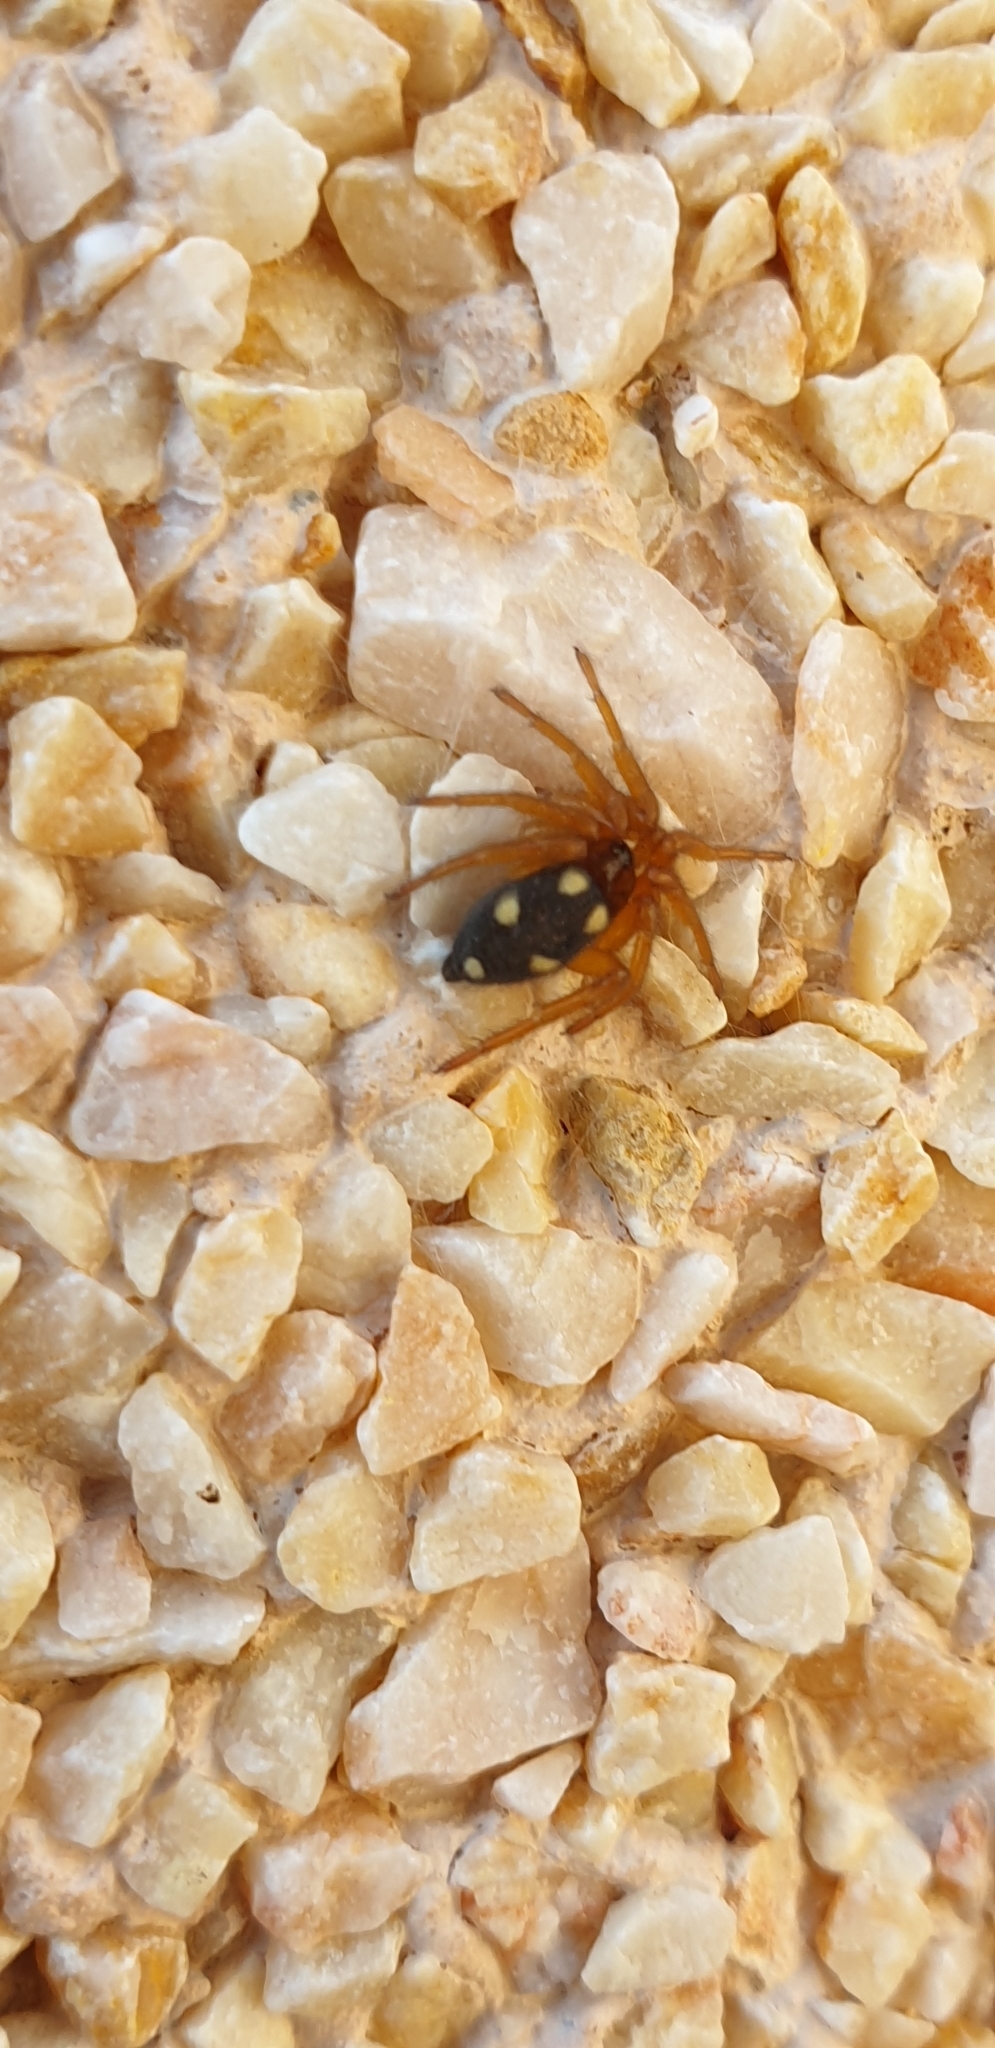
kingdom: Animalia
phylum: Arthropoda
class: Arachnida
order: Araneae
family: Oecobiidae
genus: Uroctea
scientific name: Uroctea durandi
